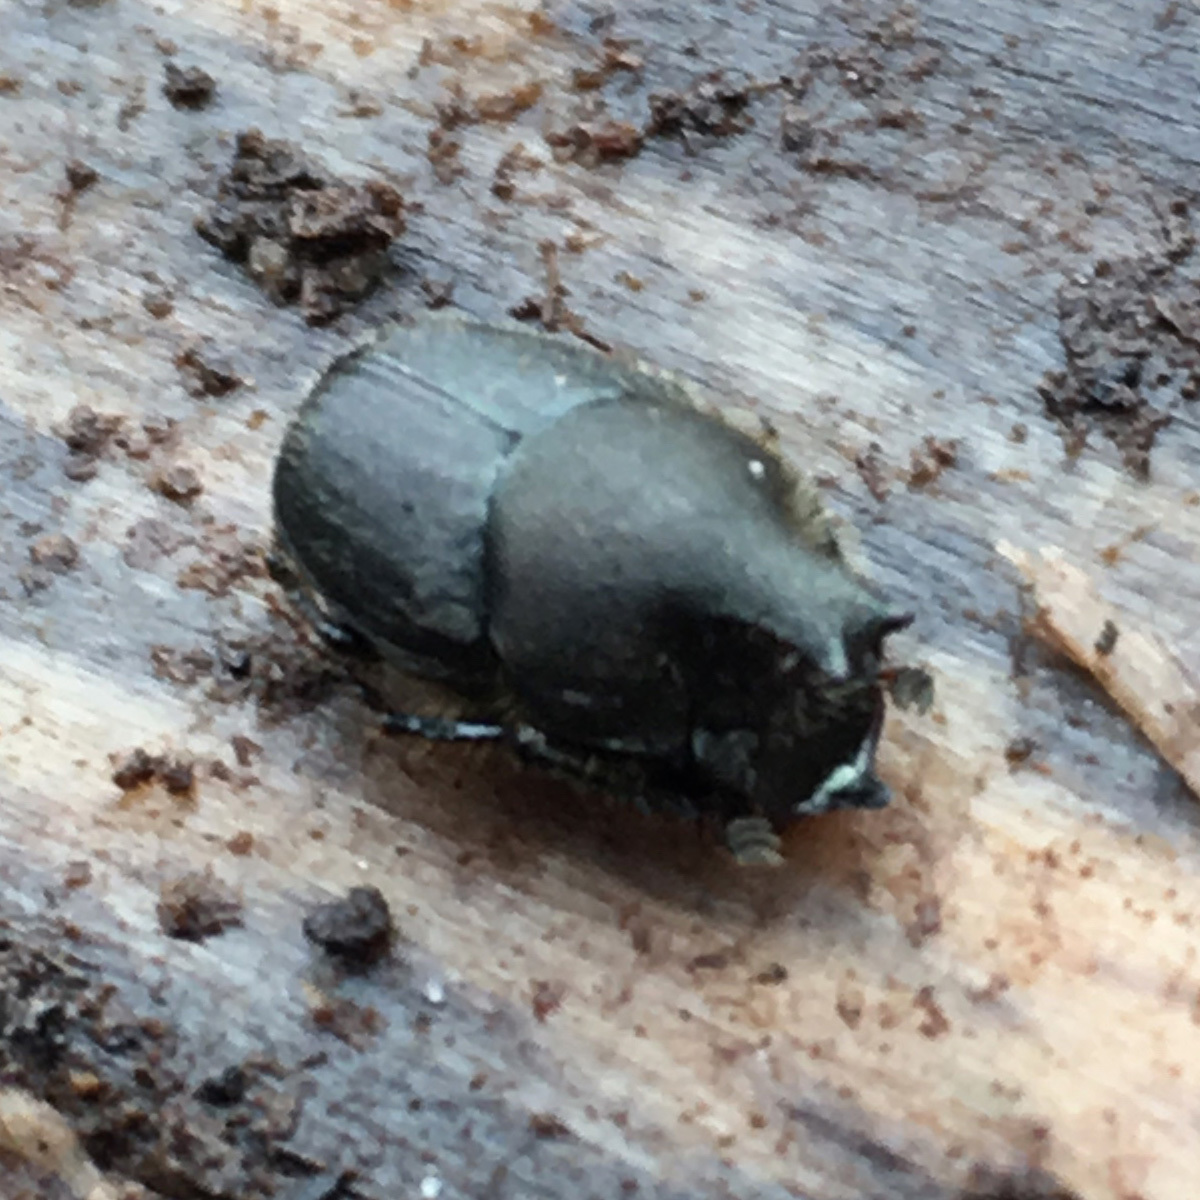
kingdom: Animalia
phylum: Arthropoda
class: Insecta
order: Coleoptera
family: Scarabaeidae
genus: Onthophagus
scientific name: Onthophagus hecate
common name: Scooped scarab
